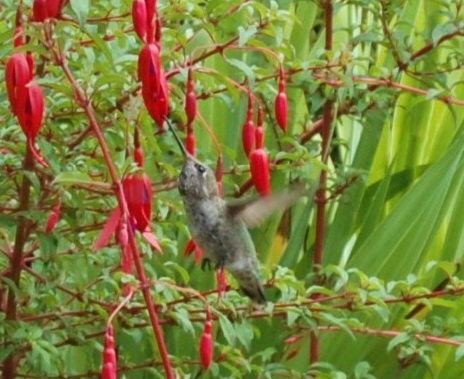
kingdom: Animalia
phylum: Chordata
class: Aves
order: Apodiformes
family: Trochilidae
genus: Calypte
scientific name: Calypte anna
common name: Anna's hummingbird
